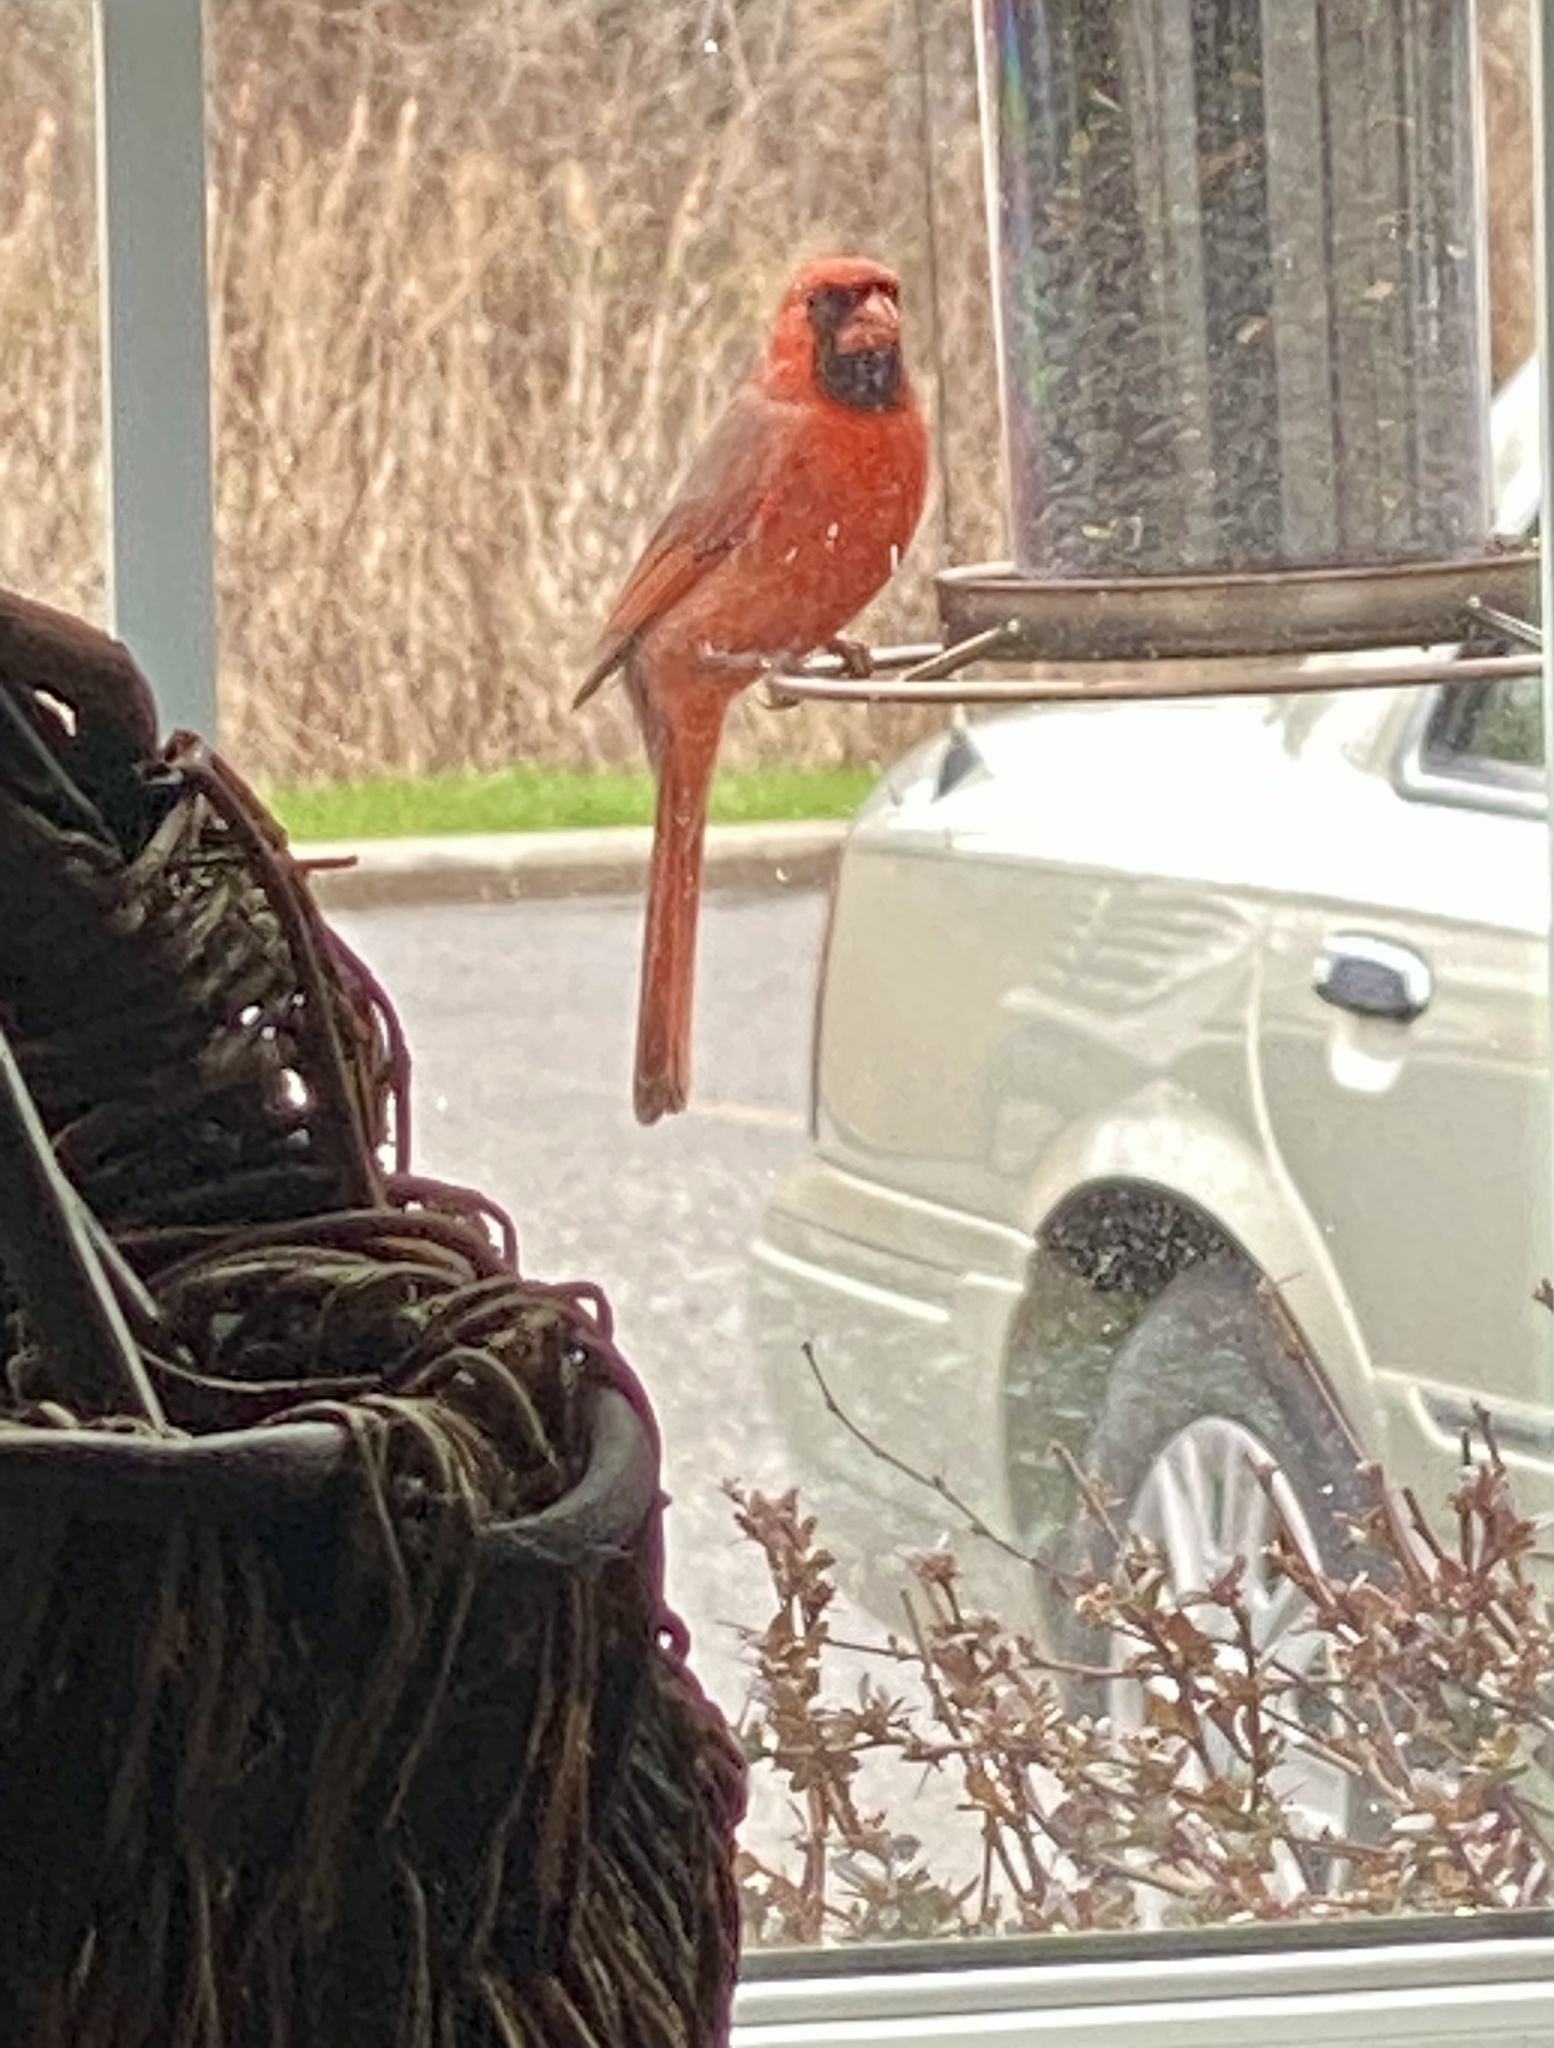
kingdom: Animalia
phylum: Chordata
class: Aves
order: Passeriformes
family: Cardinalidae
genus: Cardinalis
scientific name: Cardinalis cardinalis
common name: Northern cardinal
